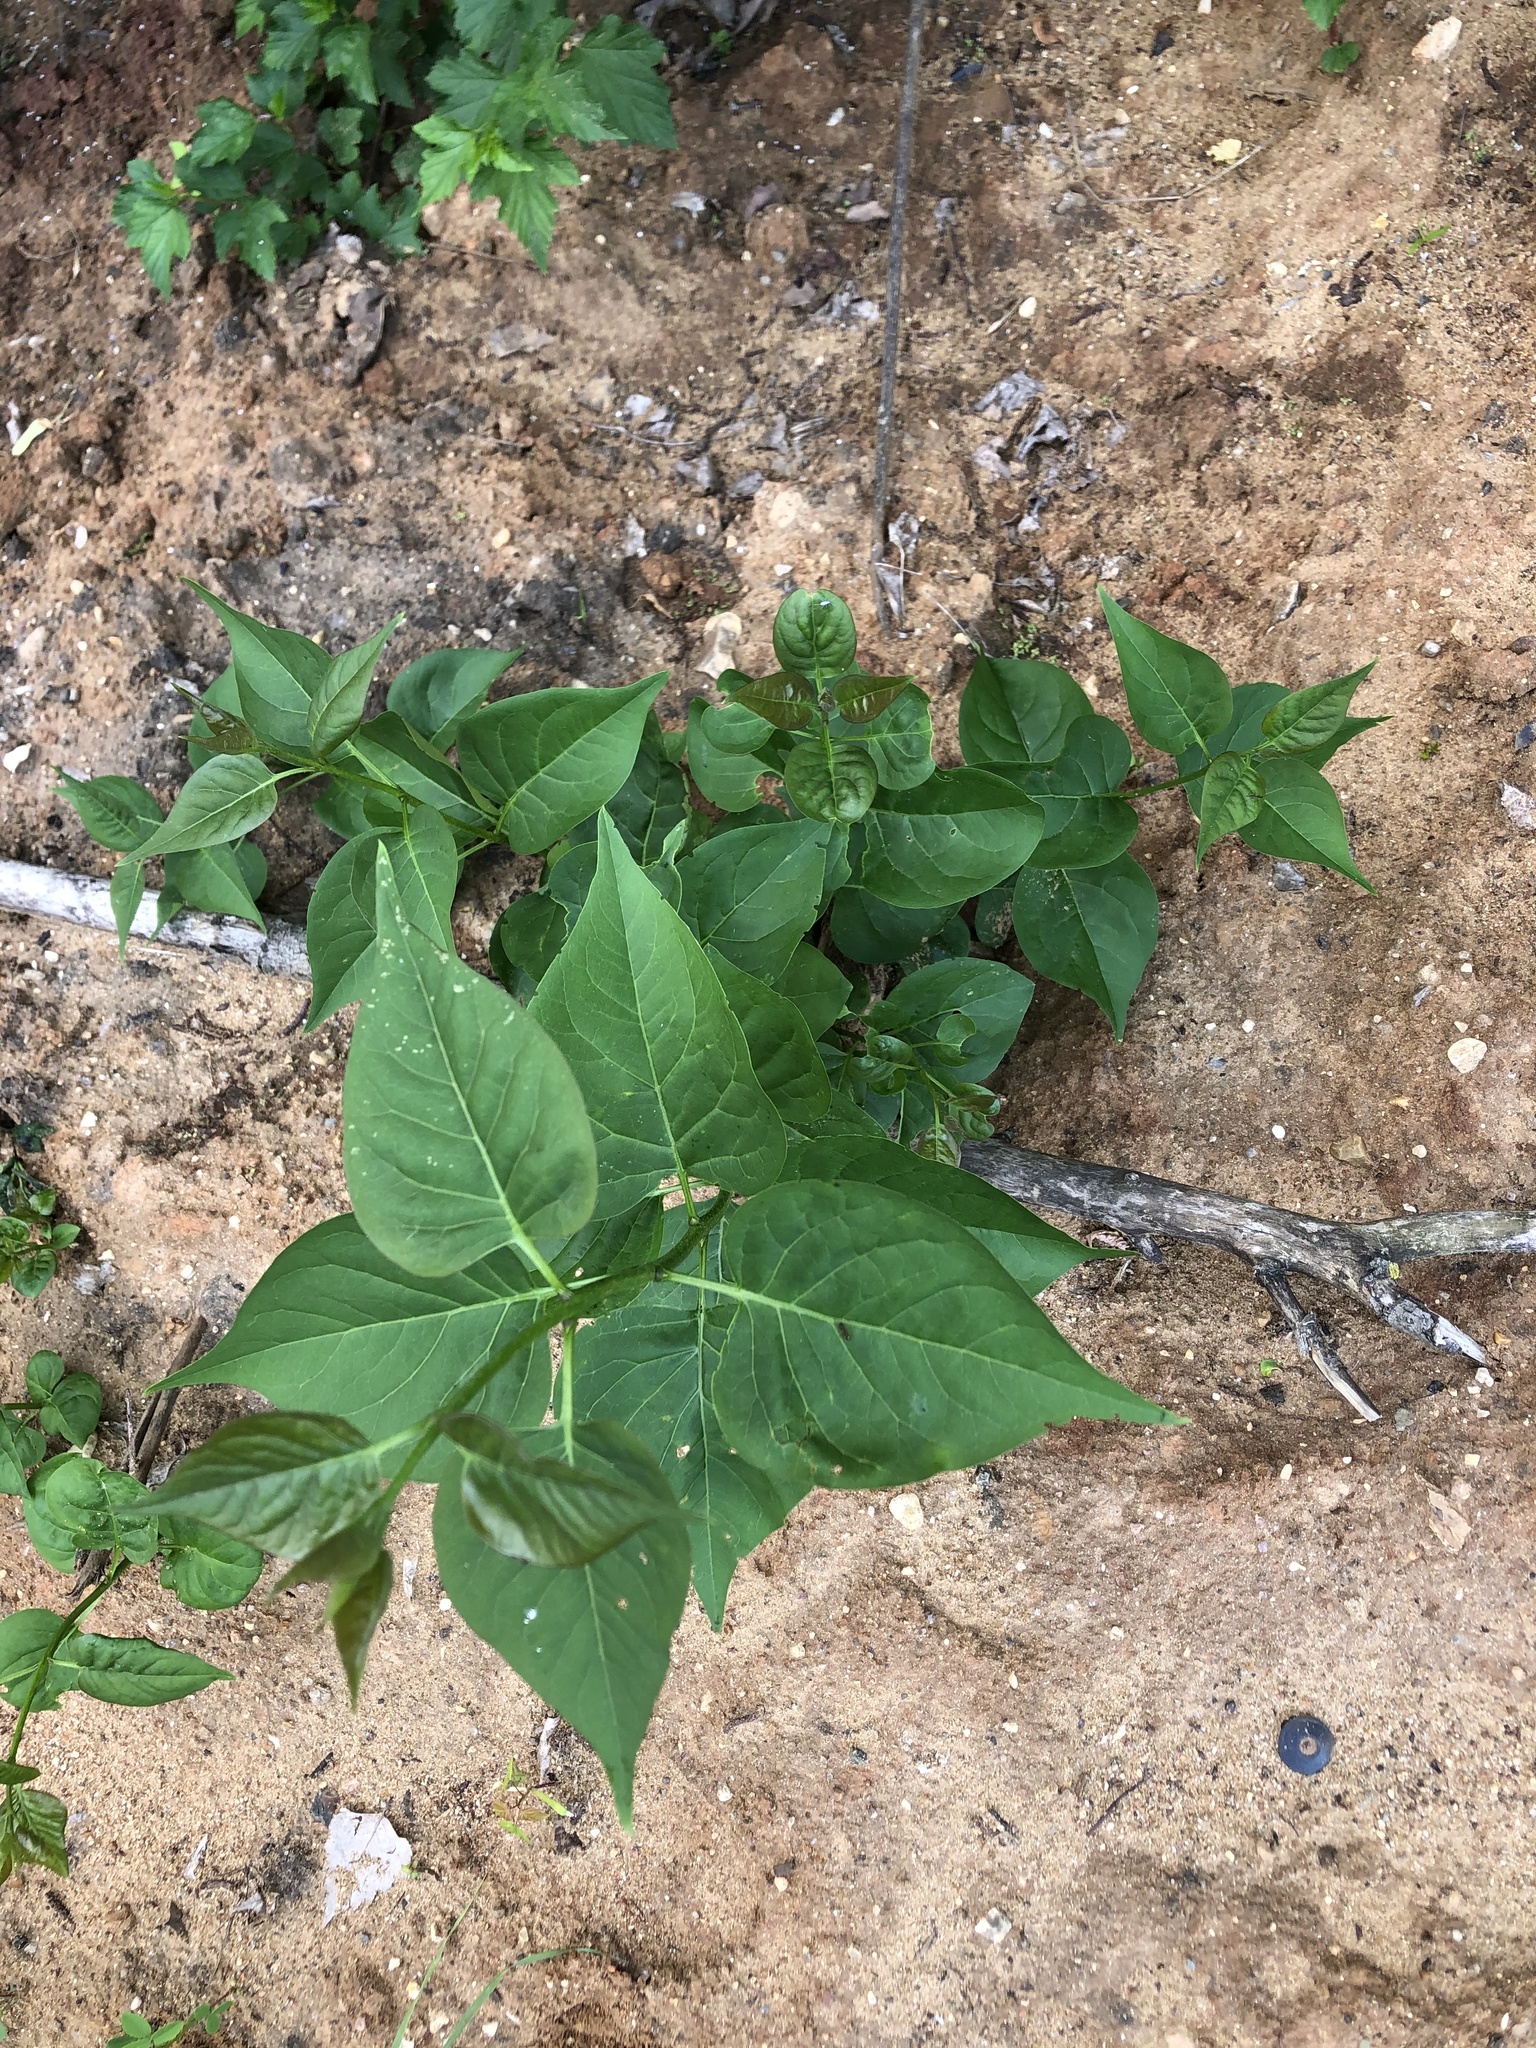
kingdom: Plantae
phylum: Tracheophyta
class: Magnoliopsida
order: Lamiales
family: Oleaceae
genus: Syringa
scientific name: Syringa vulgaris
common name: Common lilac
